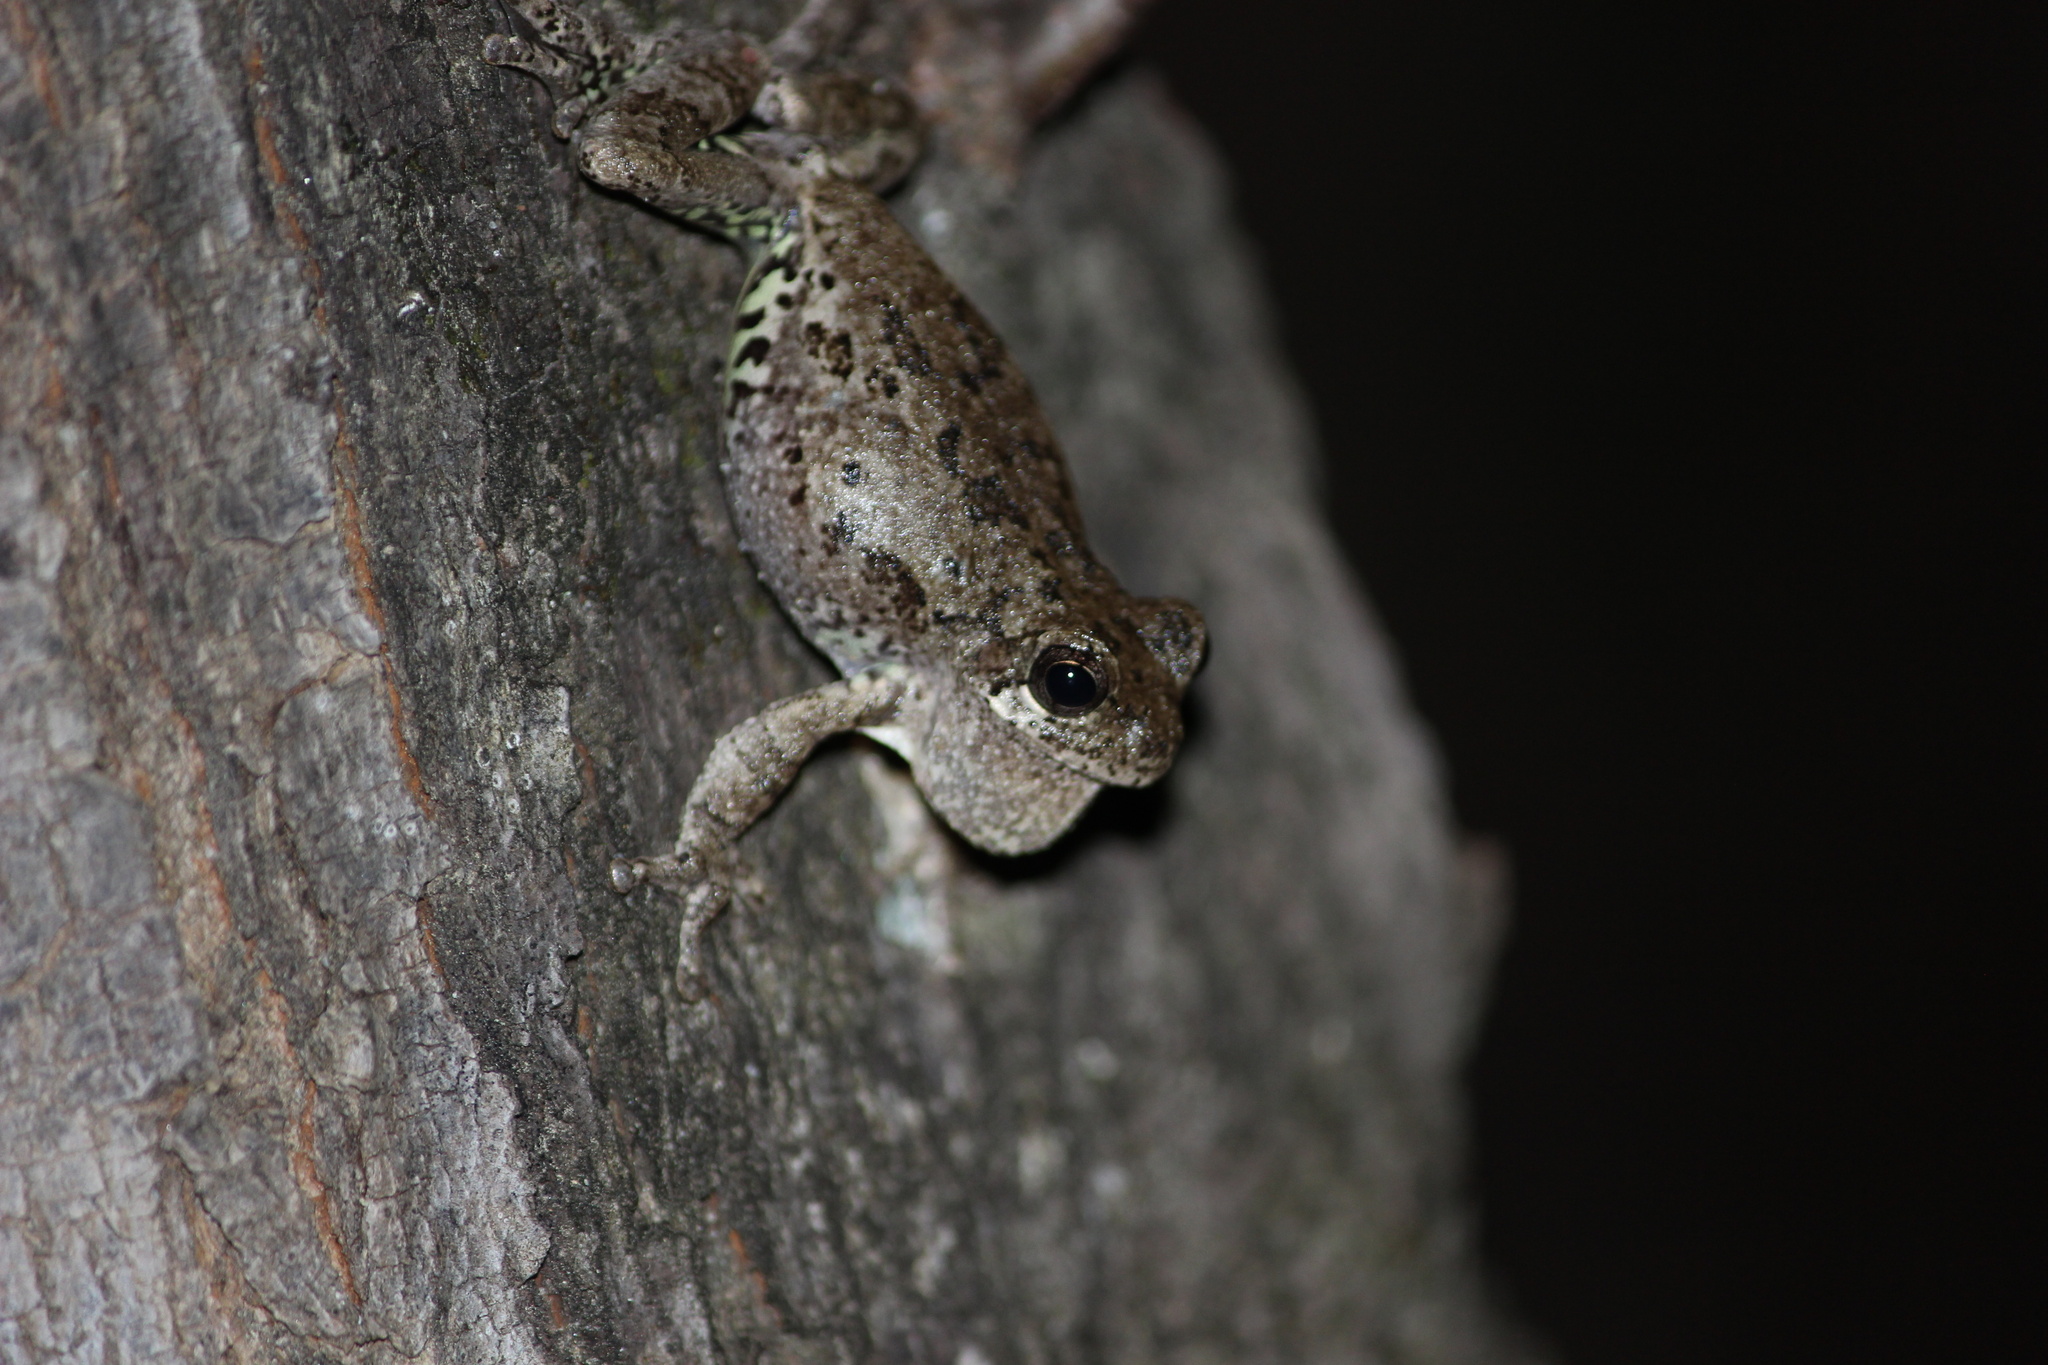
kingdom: Animalia
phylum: Chordata
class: Amphibia
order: Anura
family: Hylidae
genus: Dryophytes
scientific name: Dryophytes avivoca
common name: Bird-voiced treefrog
